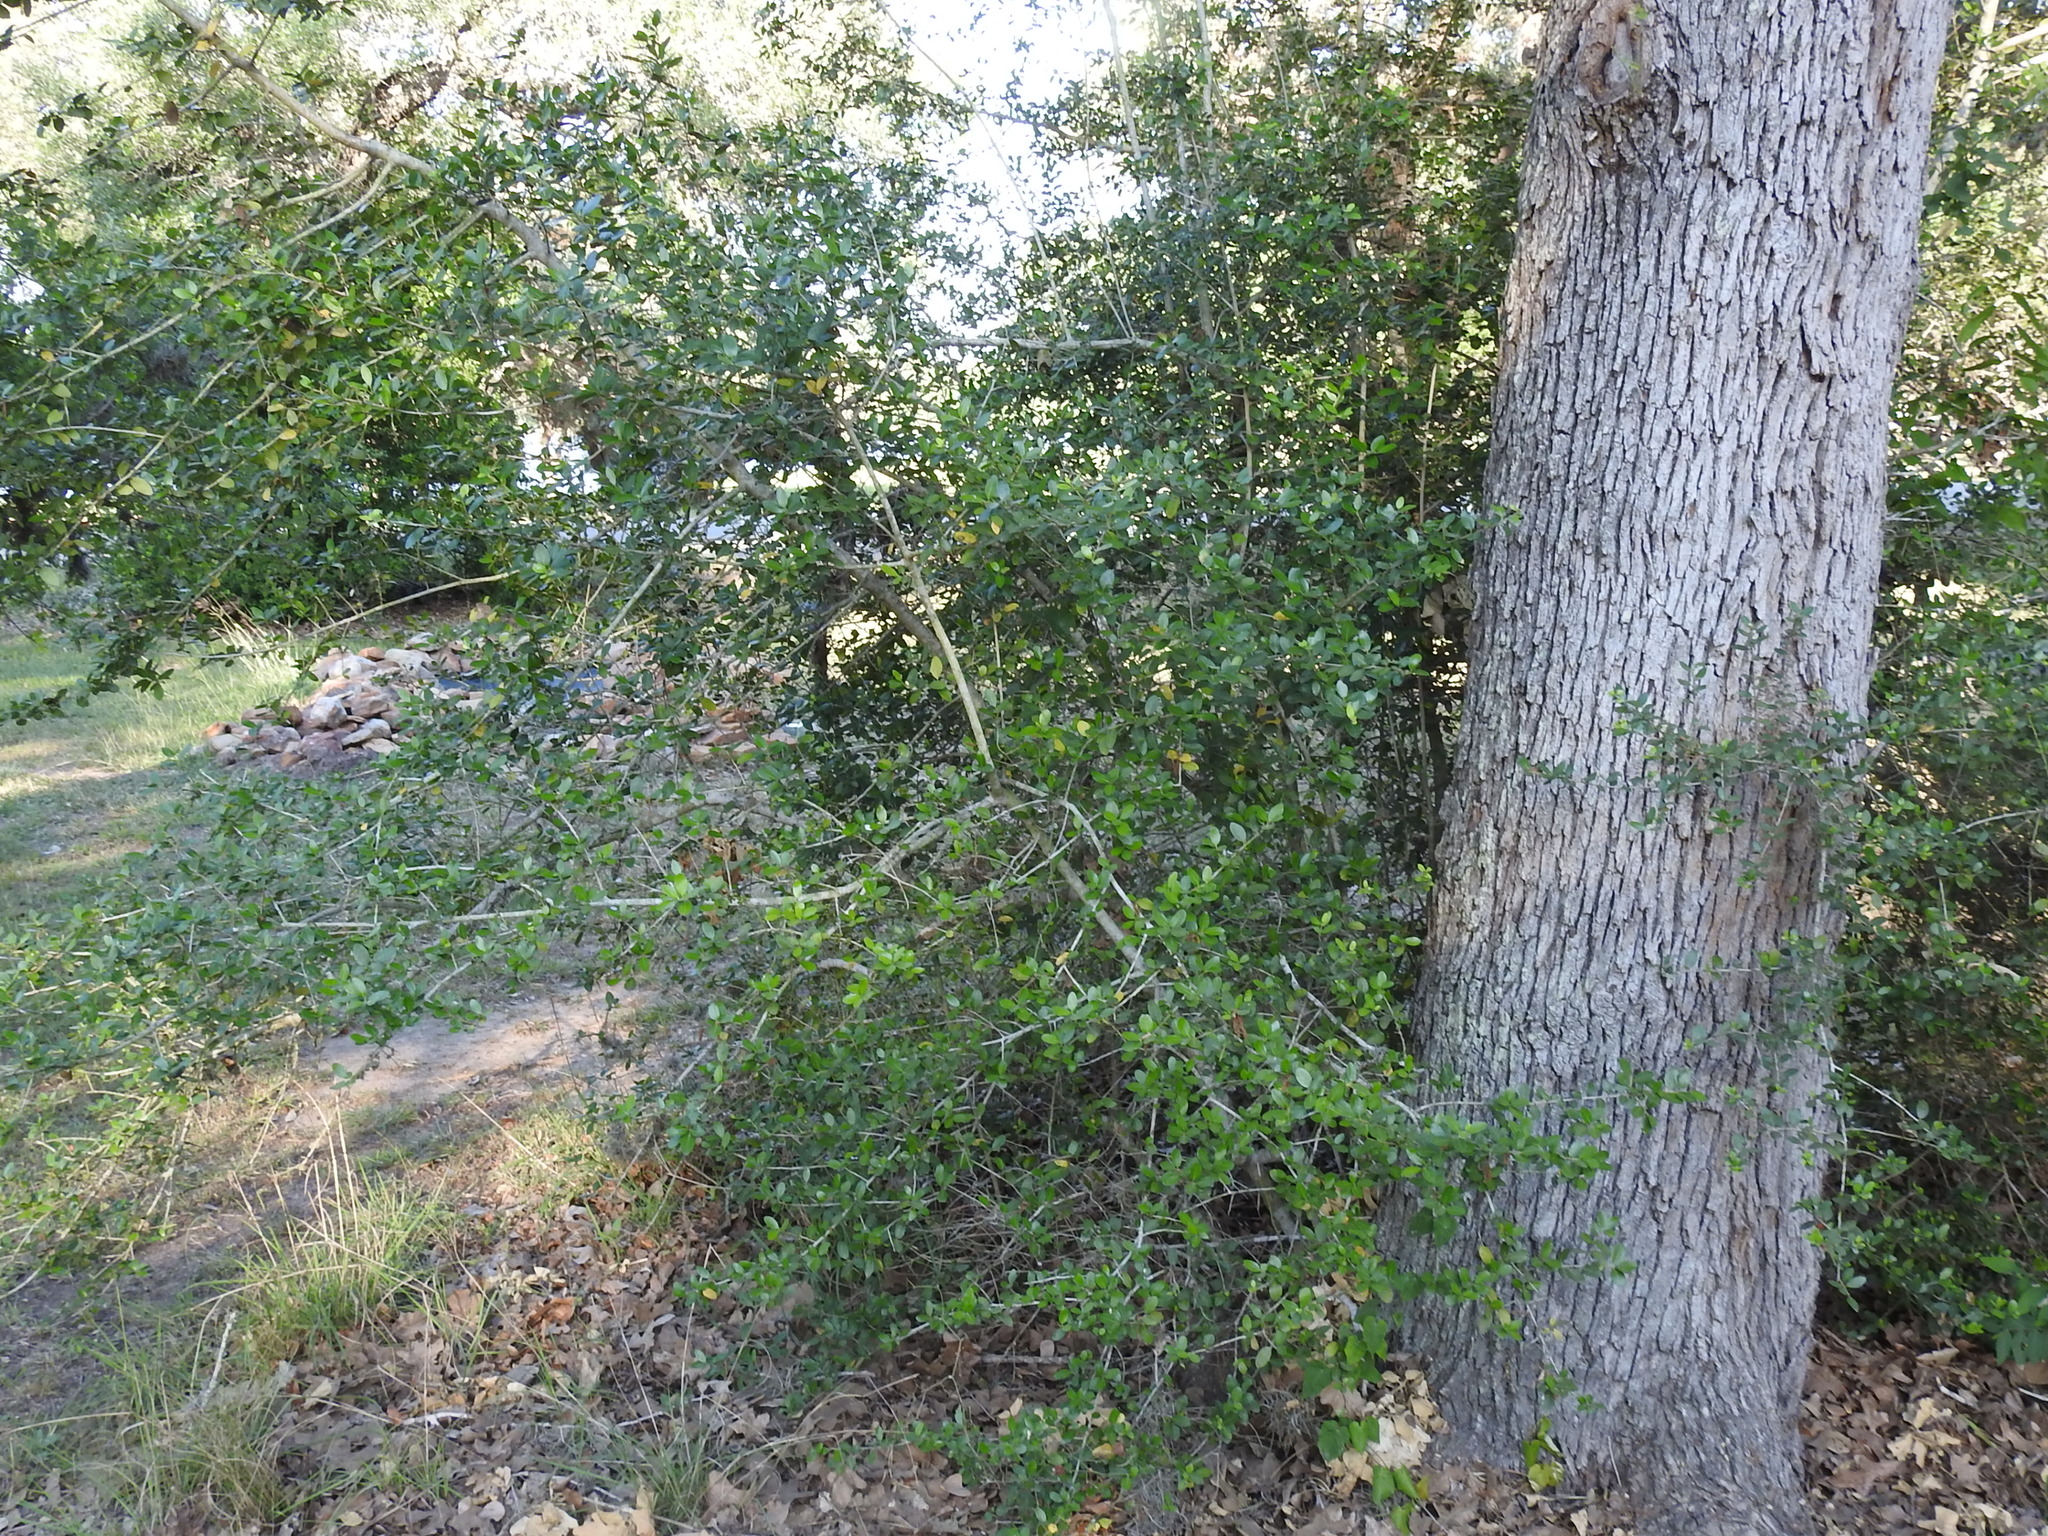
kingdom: Plantae
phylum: Tracheophyta
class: Magnoliopsida
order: Aquifoliales
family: Aquifoliaceae
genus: Ilex
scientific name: Ilex vomitoria
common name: Yaupon holly
